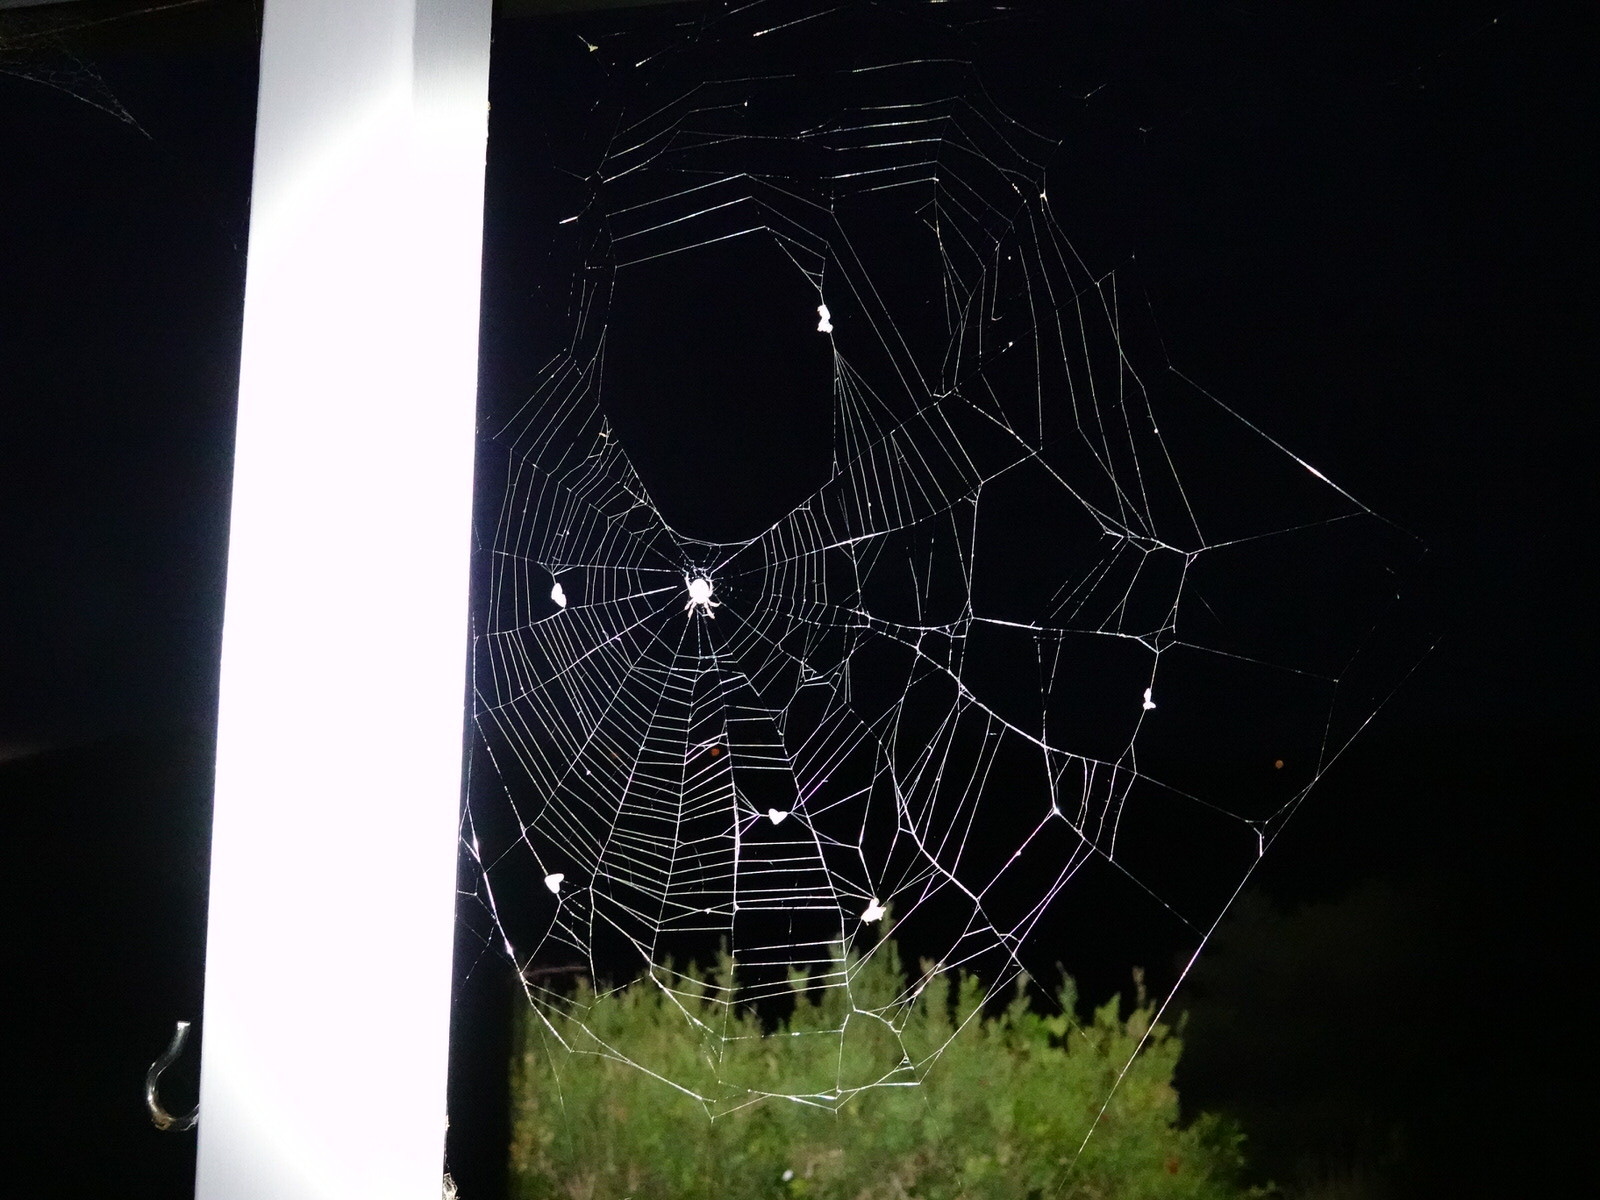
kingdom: Animalia
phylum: Arthropoda
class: Arachnida
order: Araneae
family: Araneidae
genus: Eriophora
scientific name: Eriophora pustulosa
